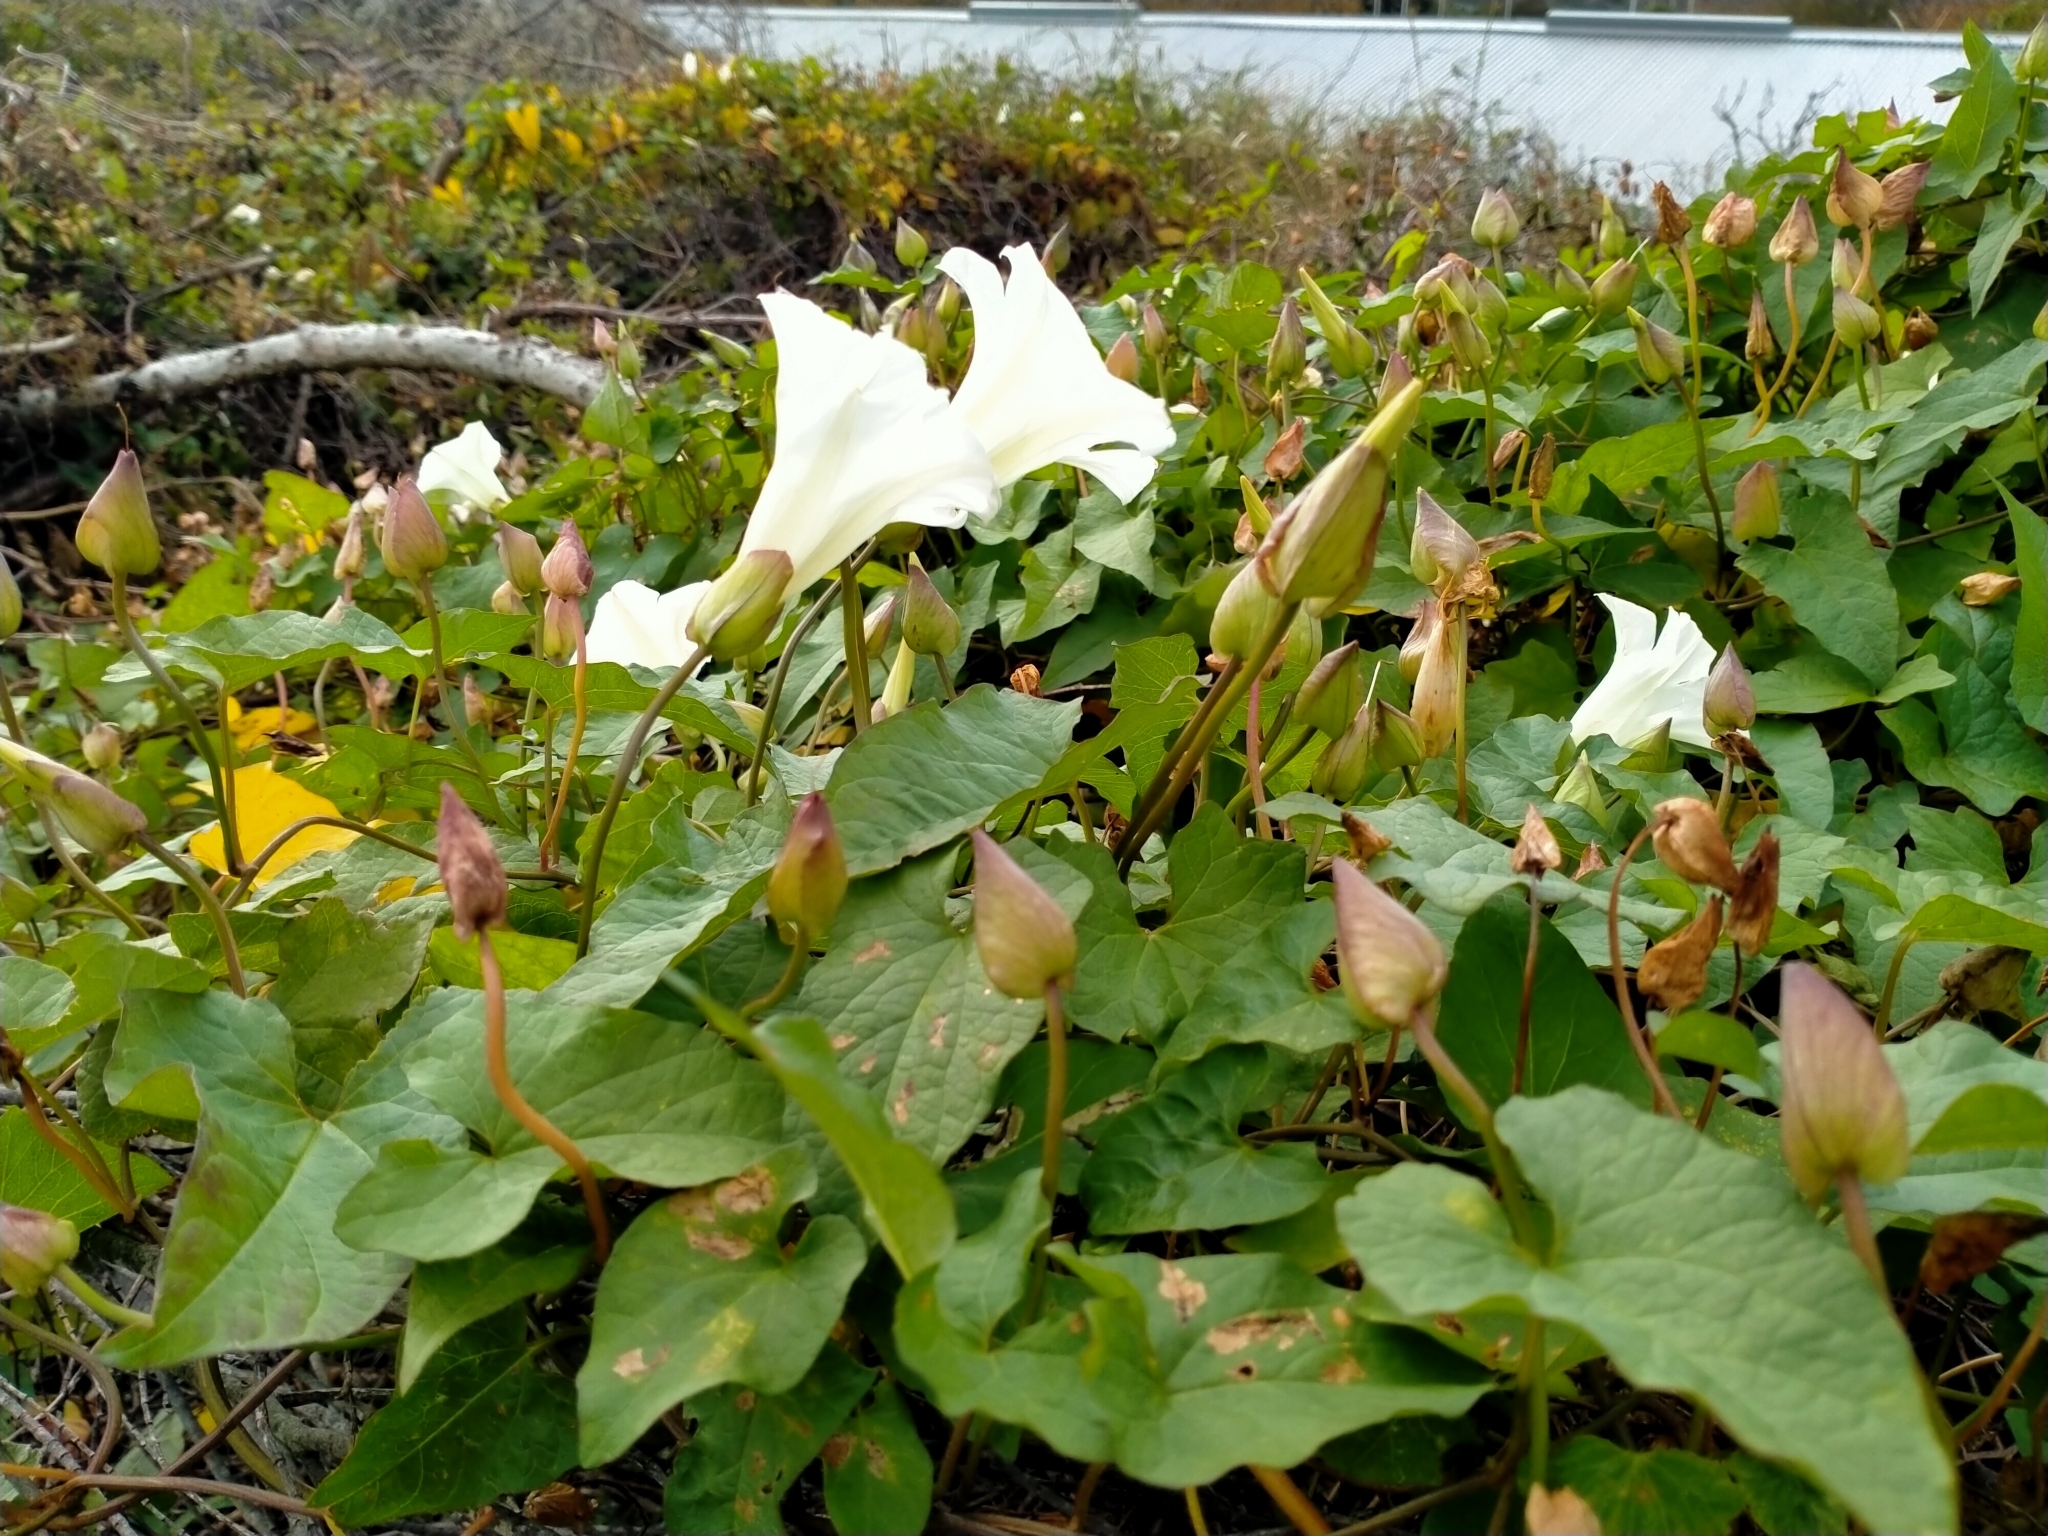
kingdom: Plantae
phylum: Tracheophyta
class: Magnoliopsida
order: Solanales
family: Convolvulaceae
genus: Calystegia
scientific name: Calystegia silvatica
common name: Large bindweed
